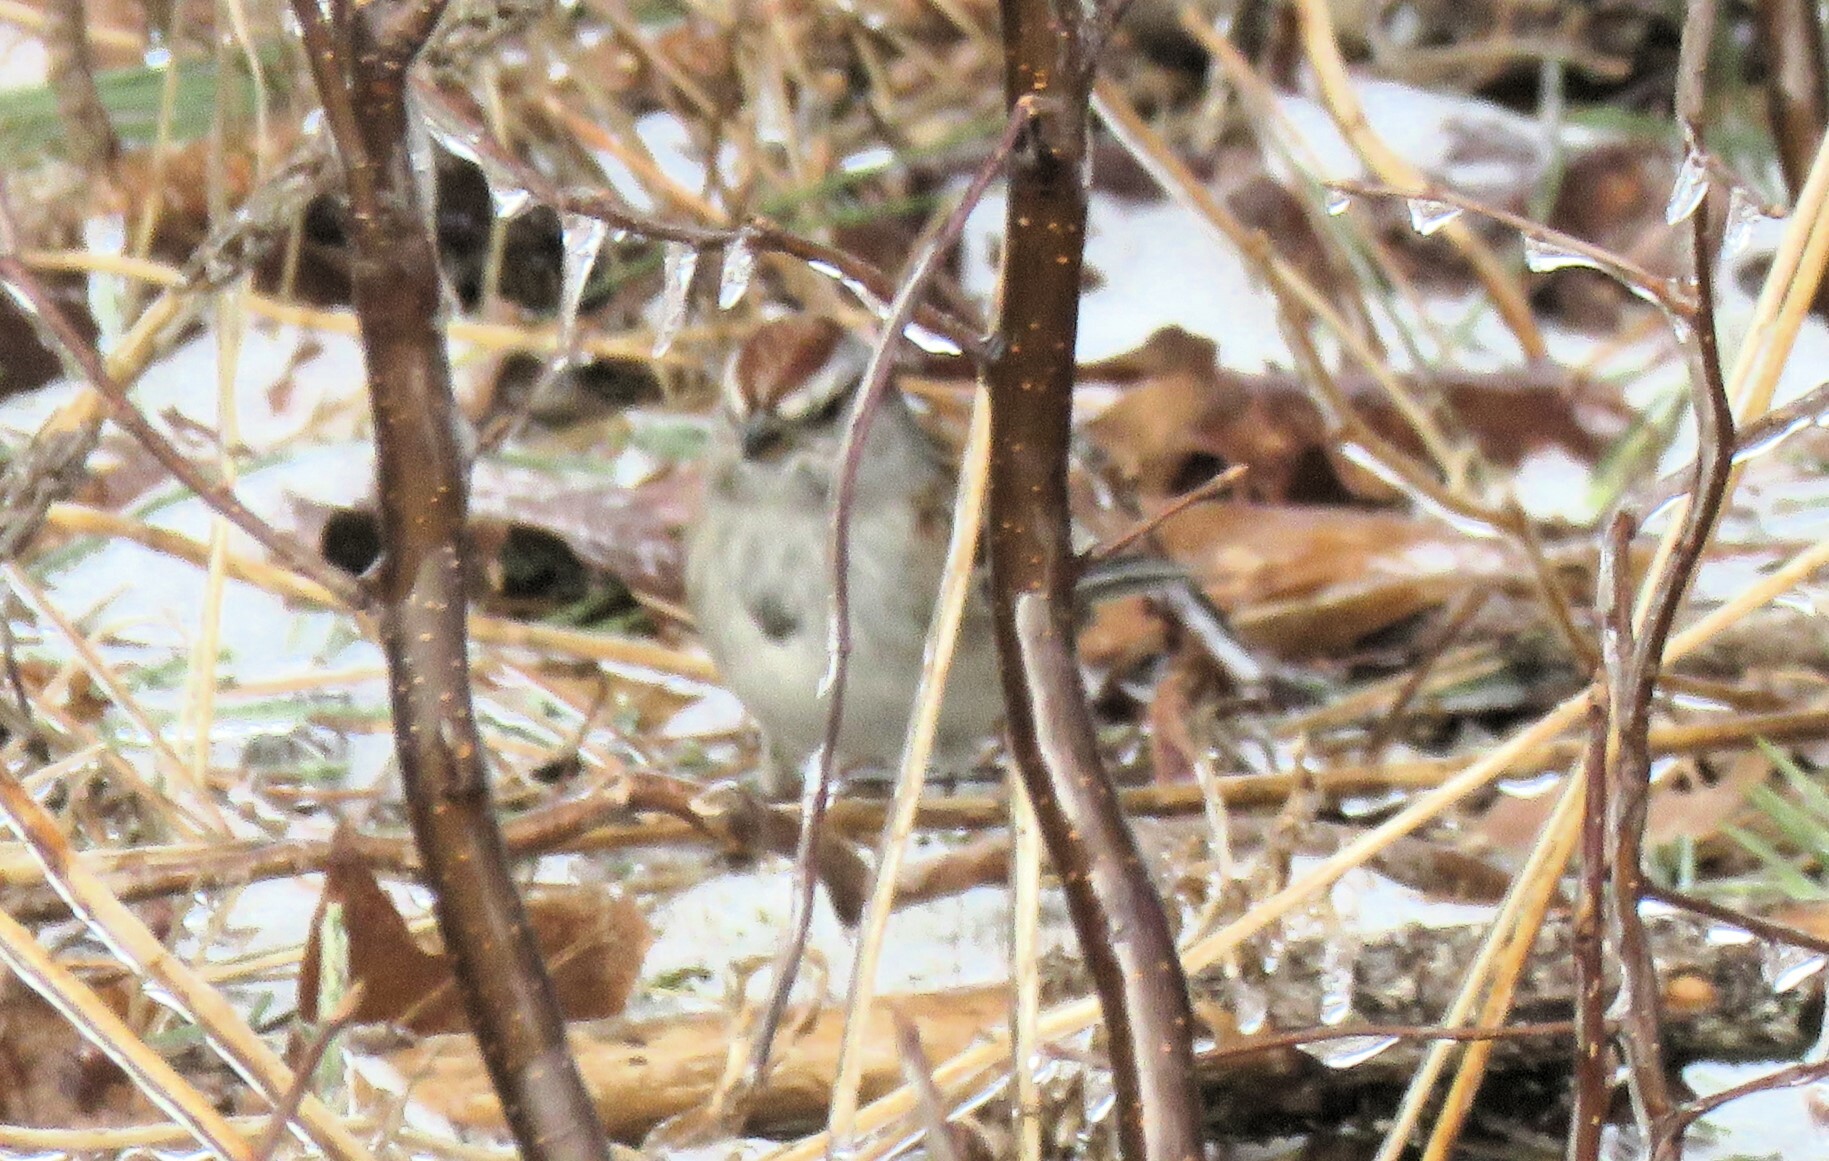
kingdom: Animalia
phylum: Chordata
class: Aves
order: Passeriformes
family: Passerellidae
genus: Spizelloides
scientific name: Spizelloides arborea
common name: American tree sparrow
